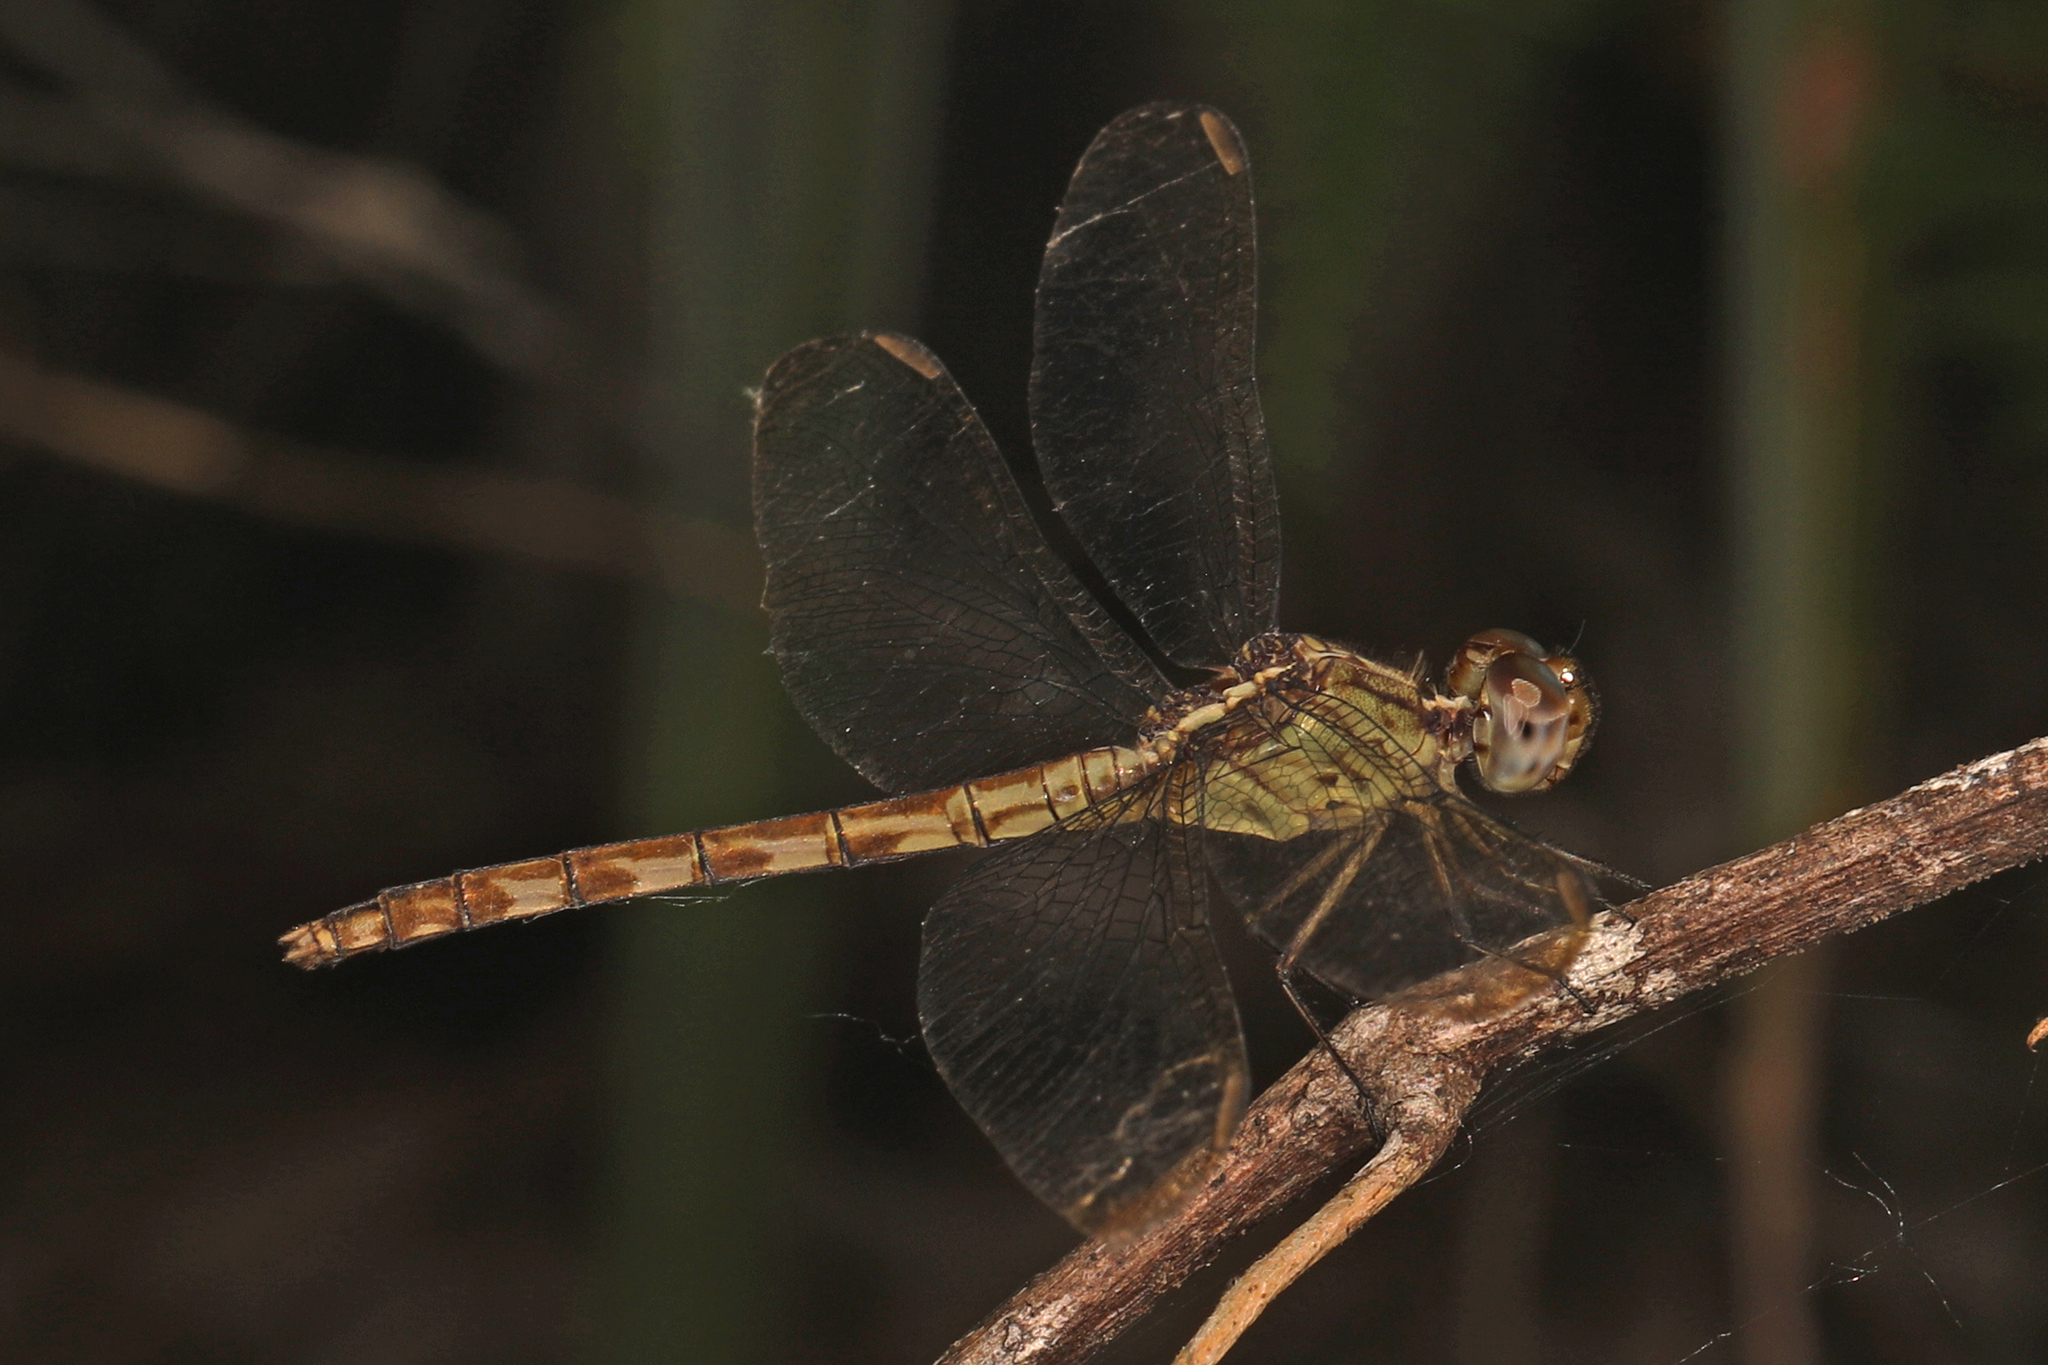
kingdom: Animalia
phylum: Arthropoda
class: Insecta
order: Odonata
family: Libellulidae
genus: Erythrodiplax
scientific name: Erythrodiplax umbrata
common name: Band-winged dragonlet
